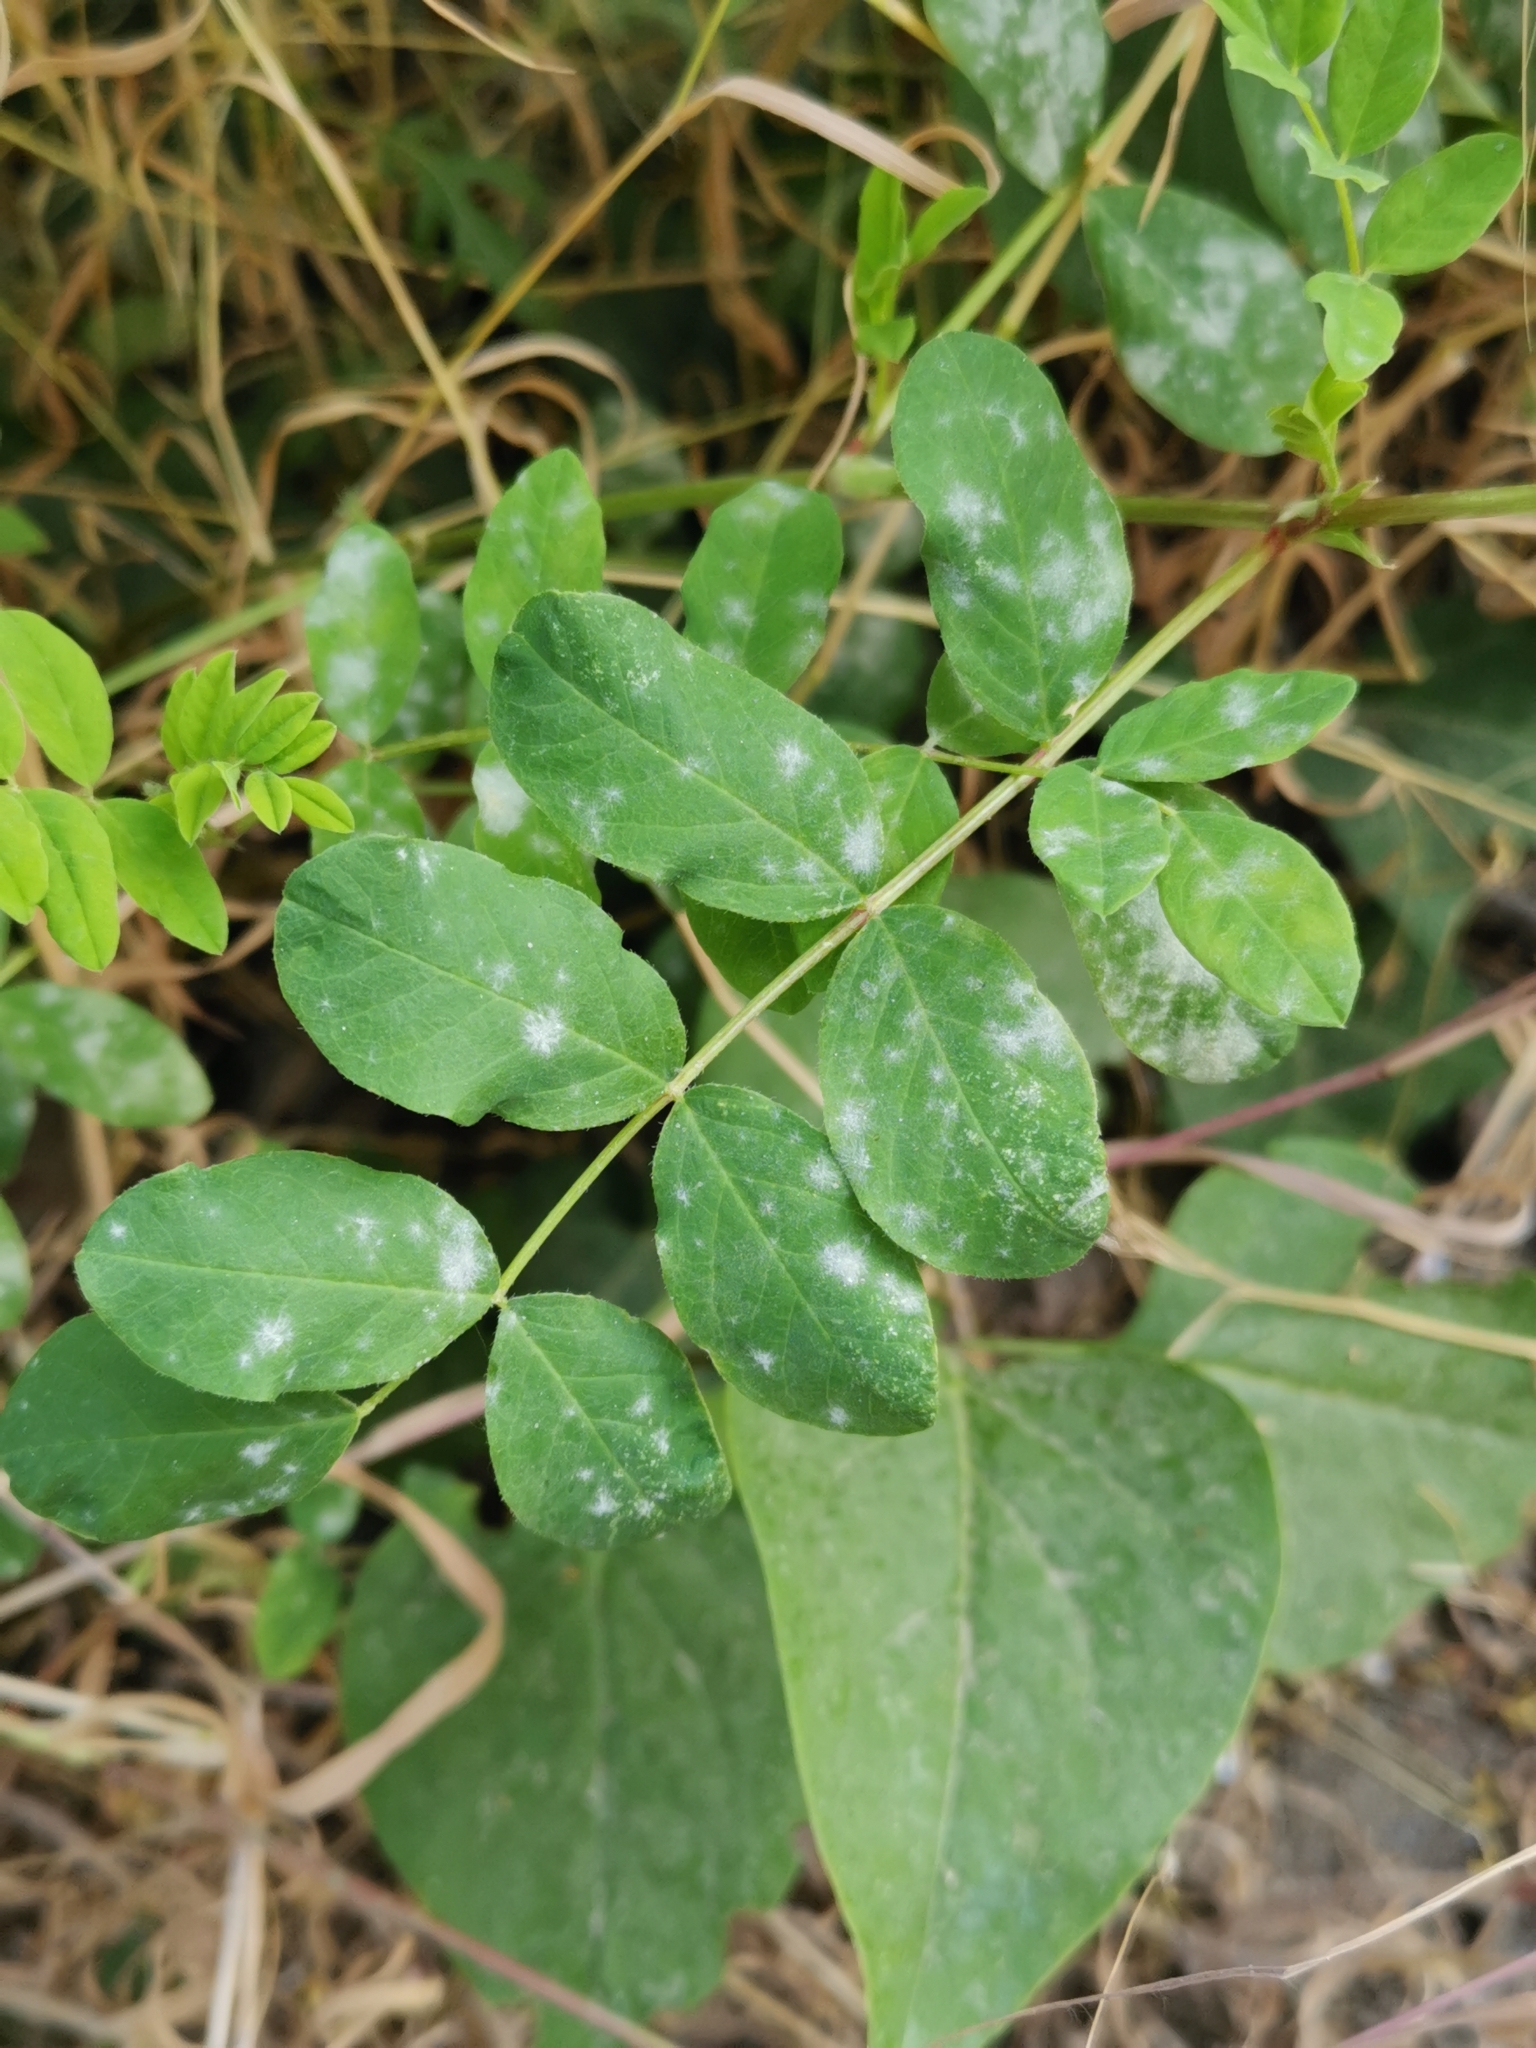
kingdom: Fungi
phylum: Ascomycota
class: Leotiomycetes
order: Helotiales
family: Erysiphaceae
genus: Erysiphe
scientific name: Erysiphe astragali
